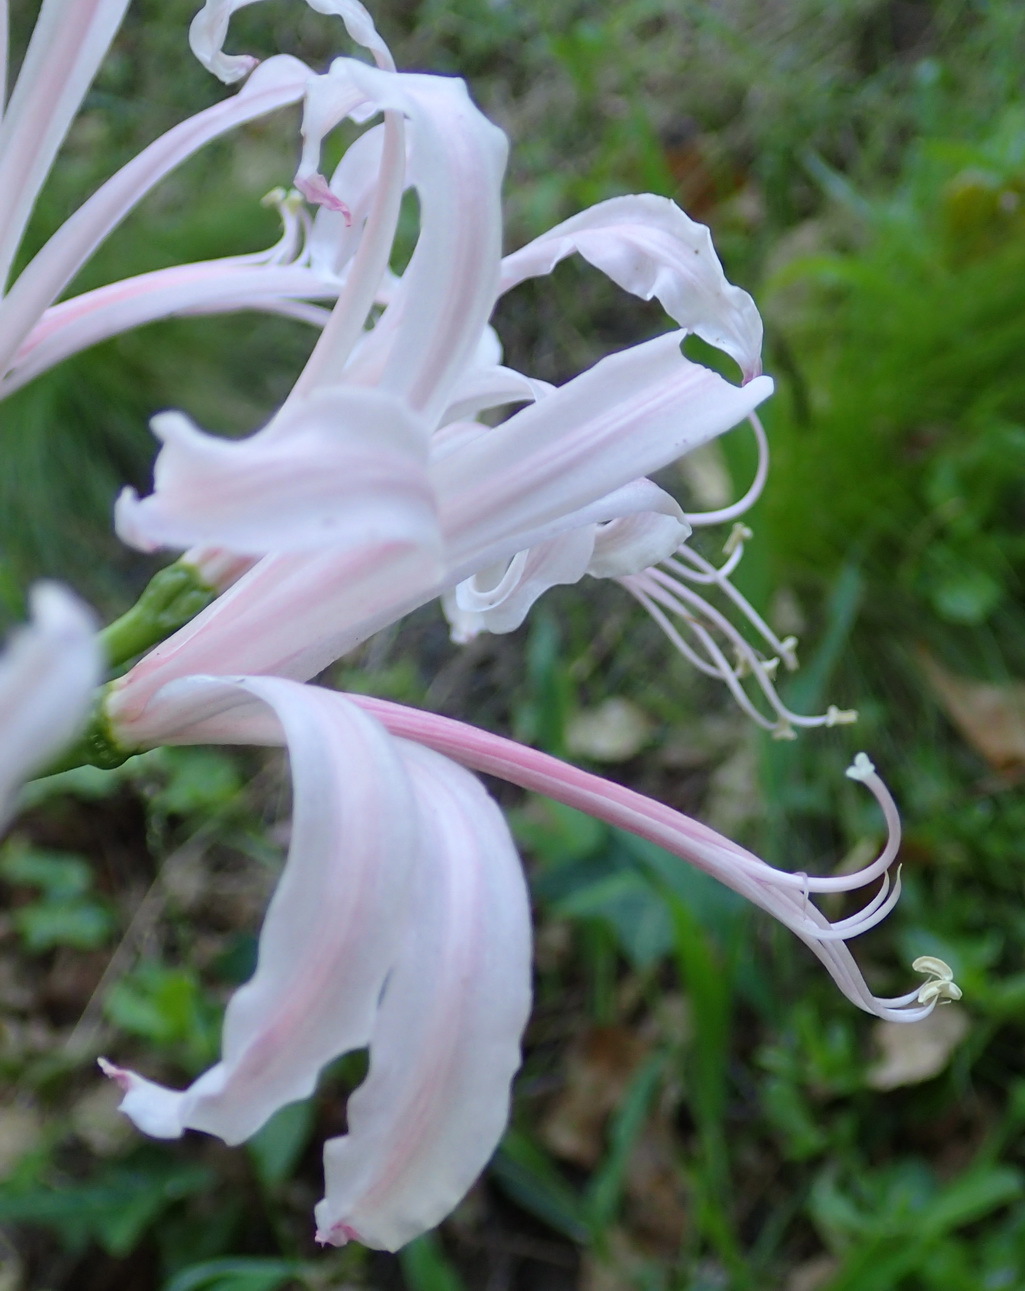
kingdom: Plantae
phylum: Tracheophyta
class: Liliopsida
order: Asparagales
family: Amaryllidaceae
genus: Nerine
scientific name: Nerine humilis
